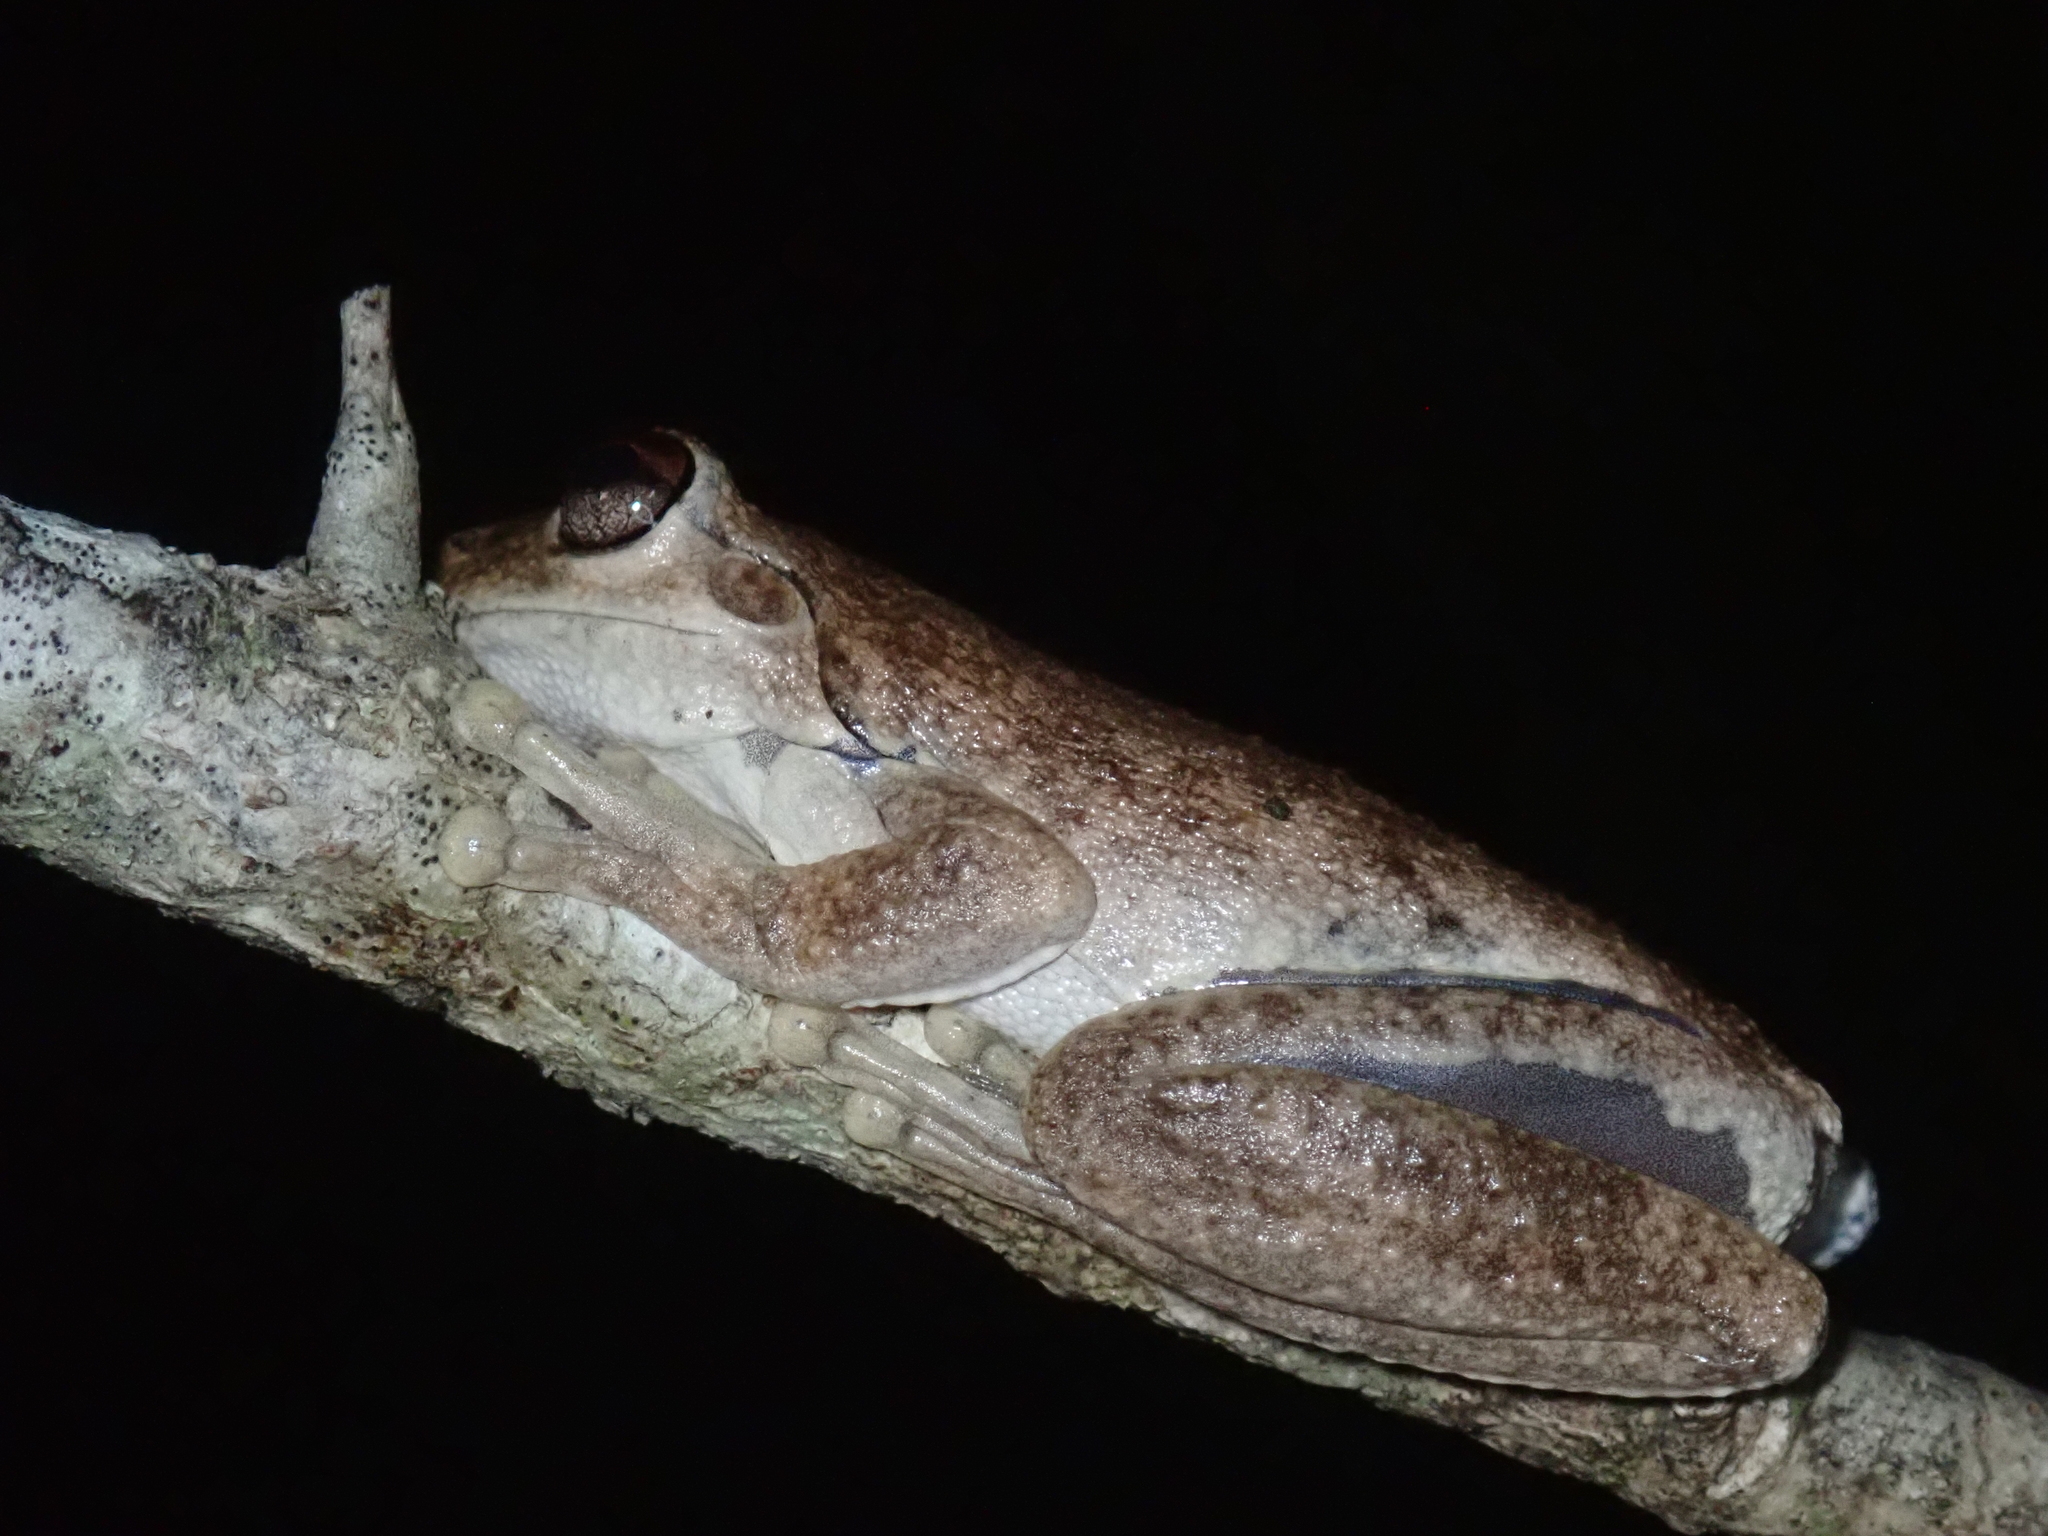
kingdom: Animalia
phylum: Chordata
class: Amphibia
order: Anura
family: Pelodryadidae
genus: Litoria
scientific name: Litoria rothii
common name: Roth’s tree frog
